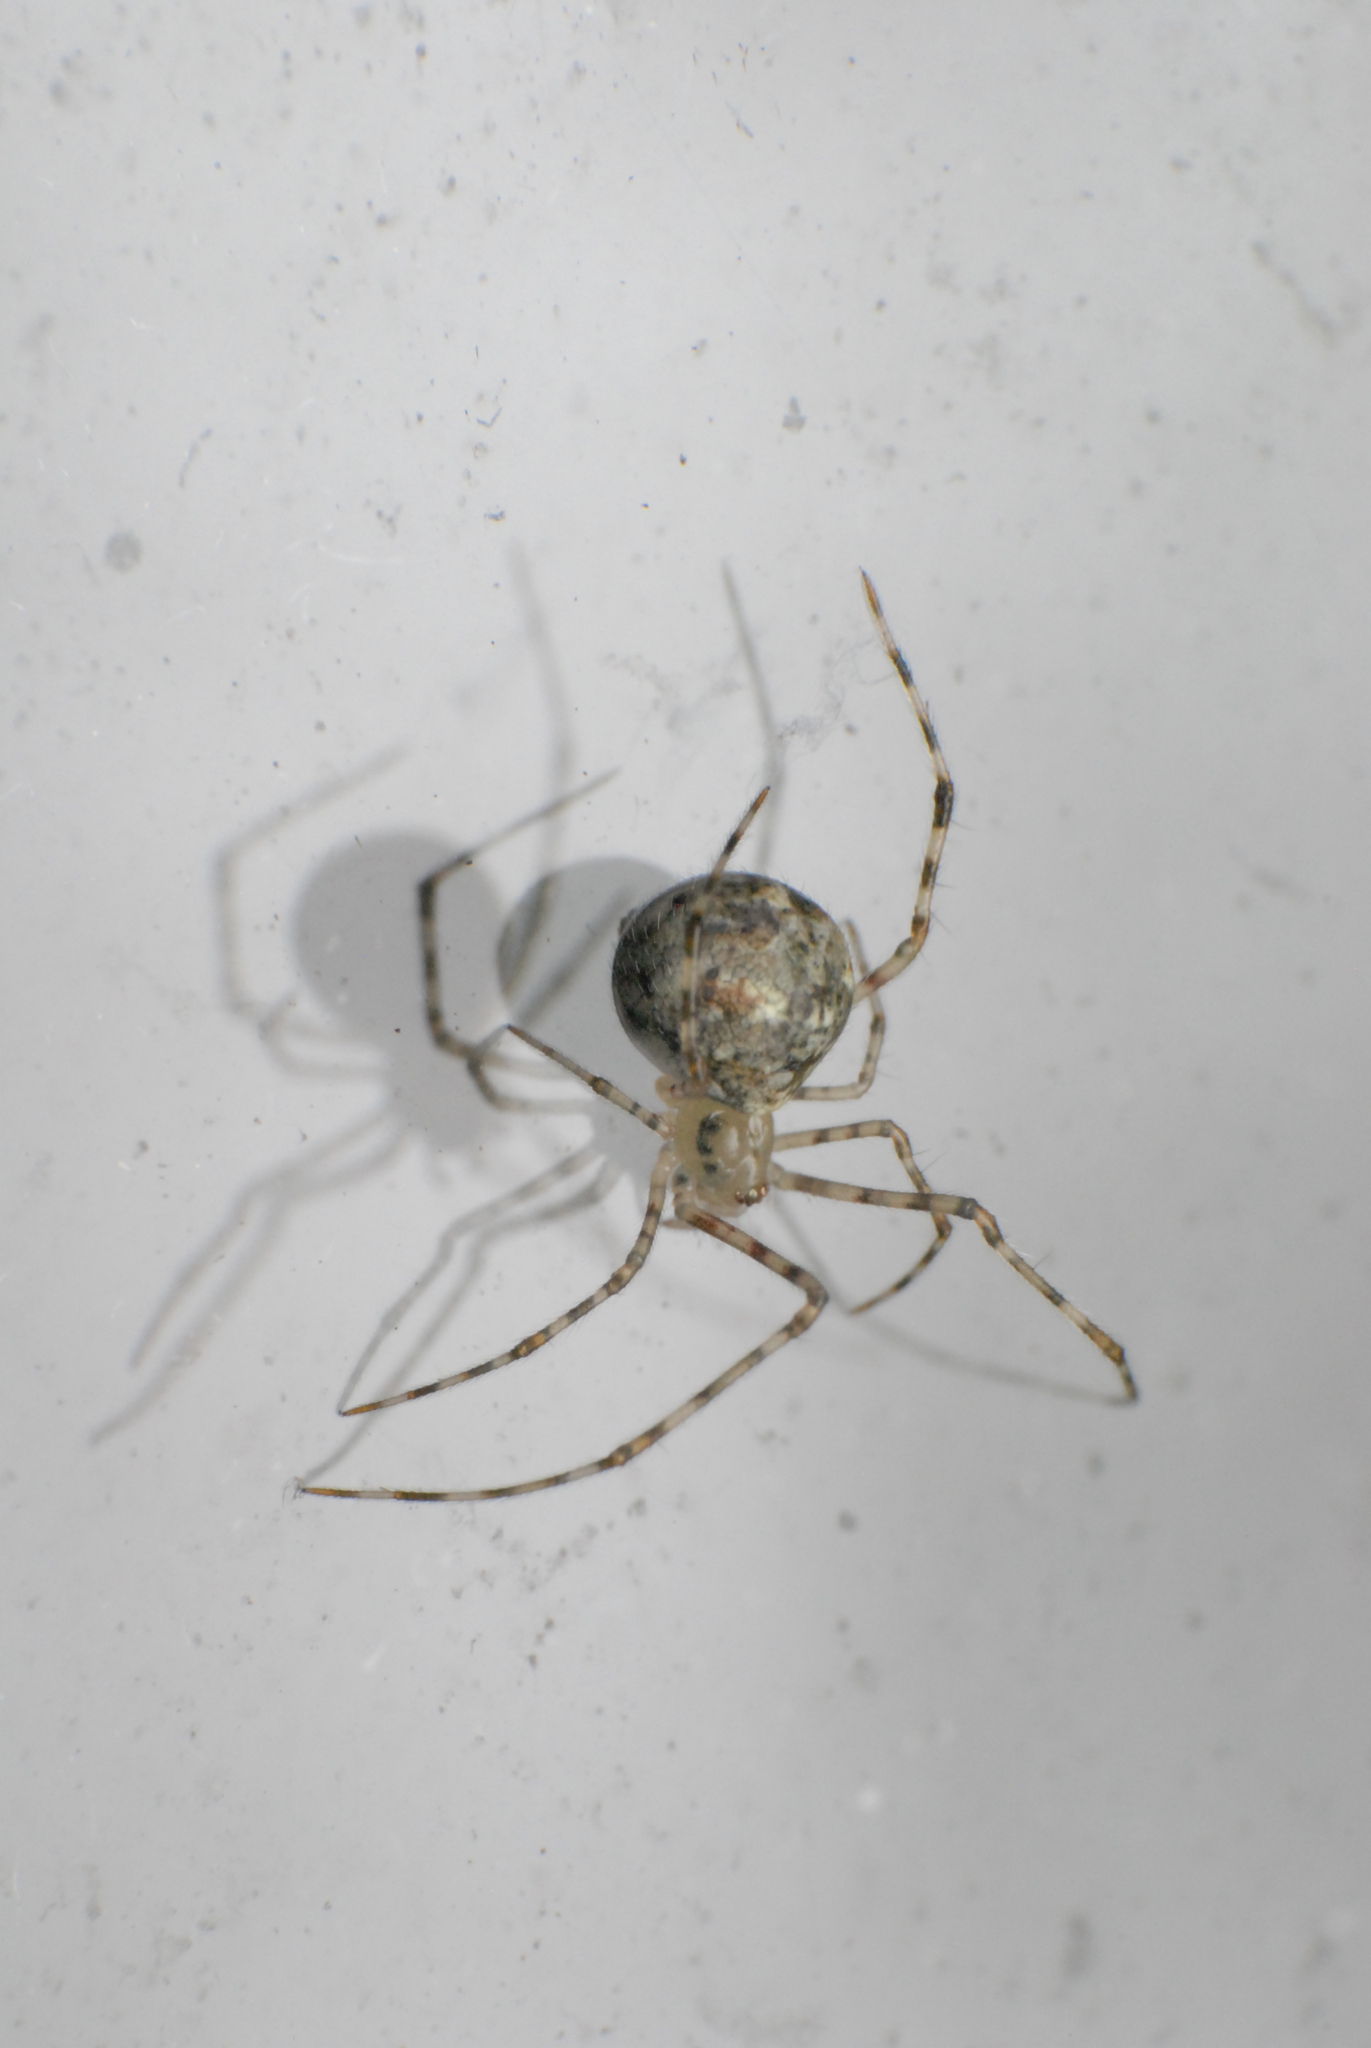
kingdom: Animalia
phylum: Arthropoda
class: Arachnida
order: Araneae
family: Theridiidae
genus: Cryptachaea
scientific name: Cryptachaea gigantipes
